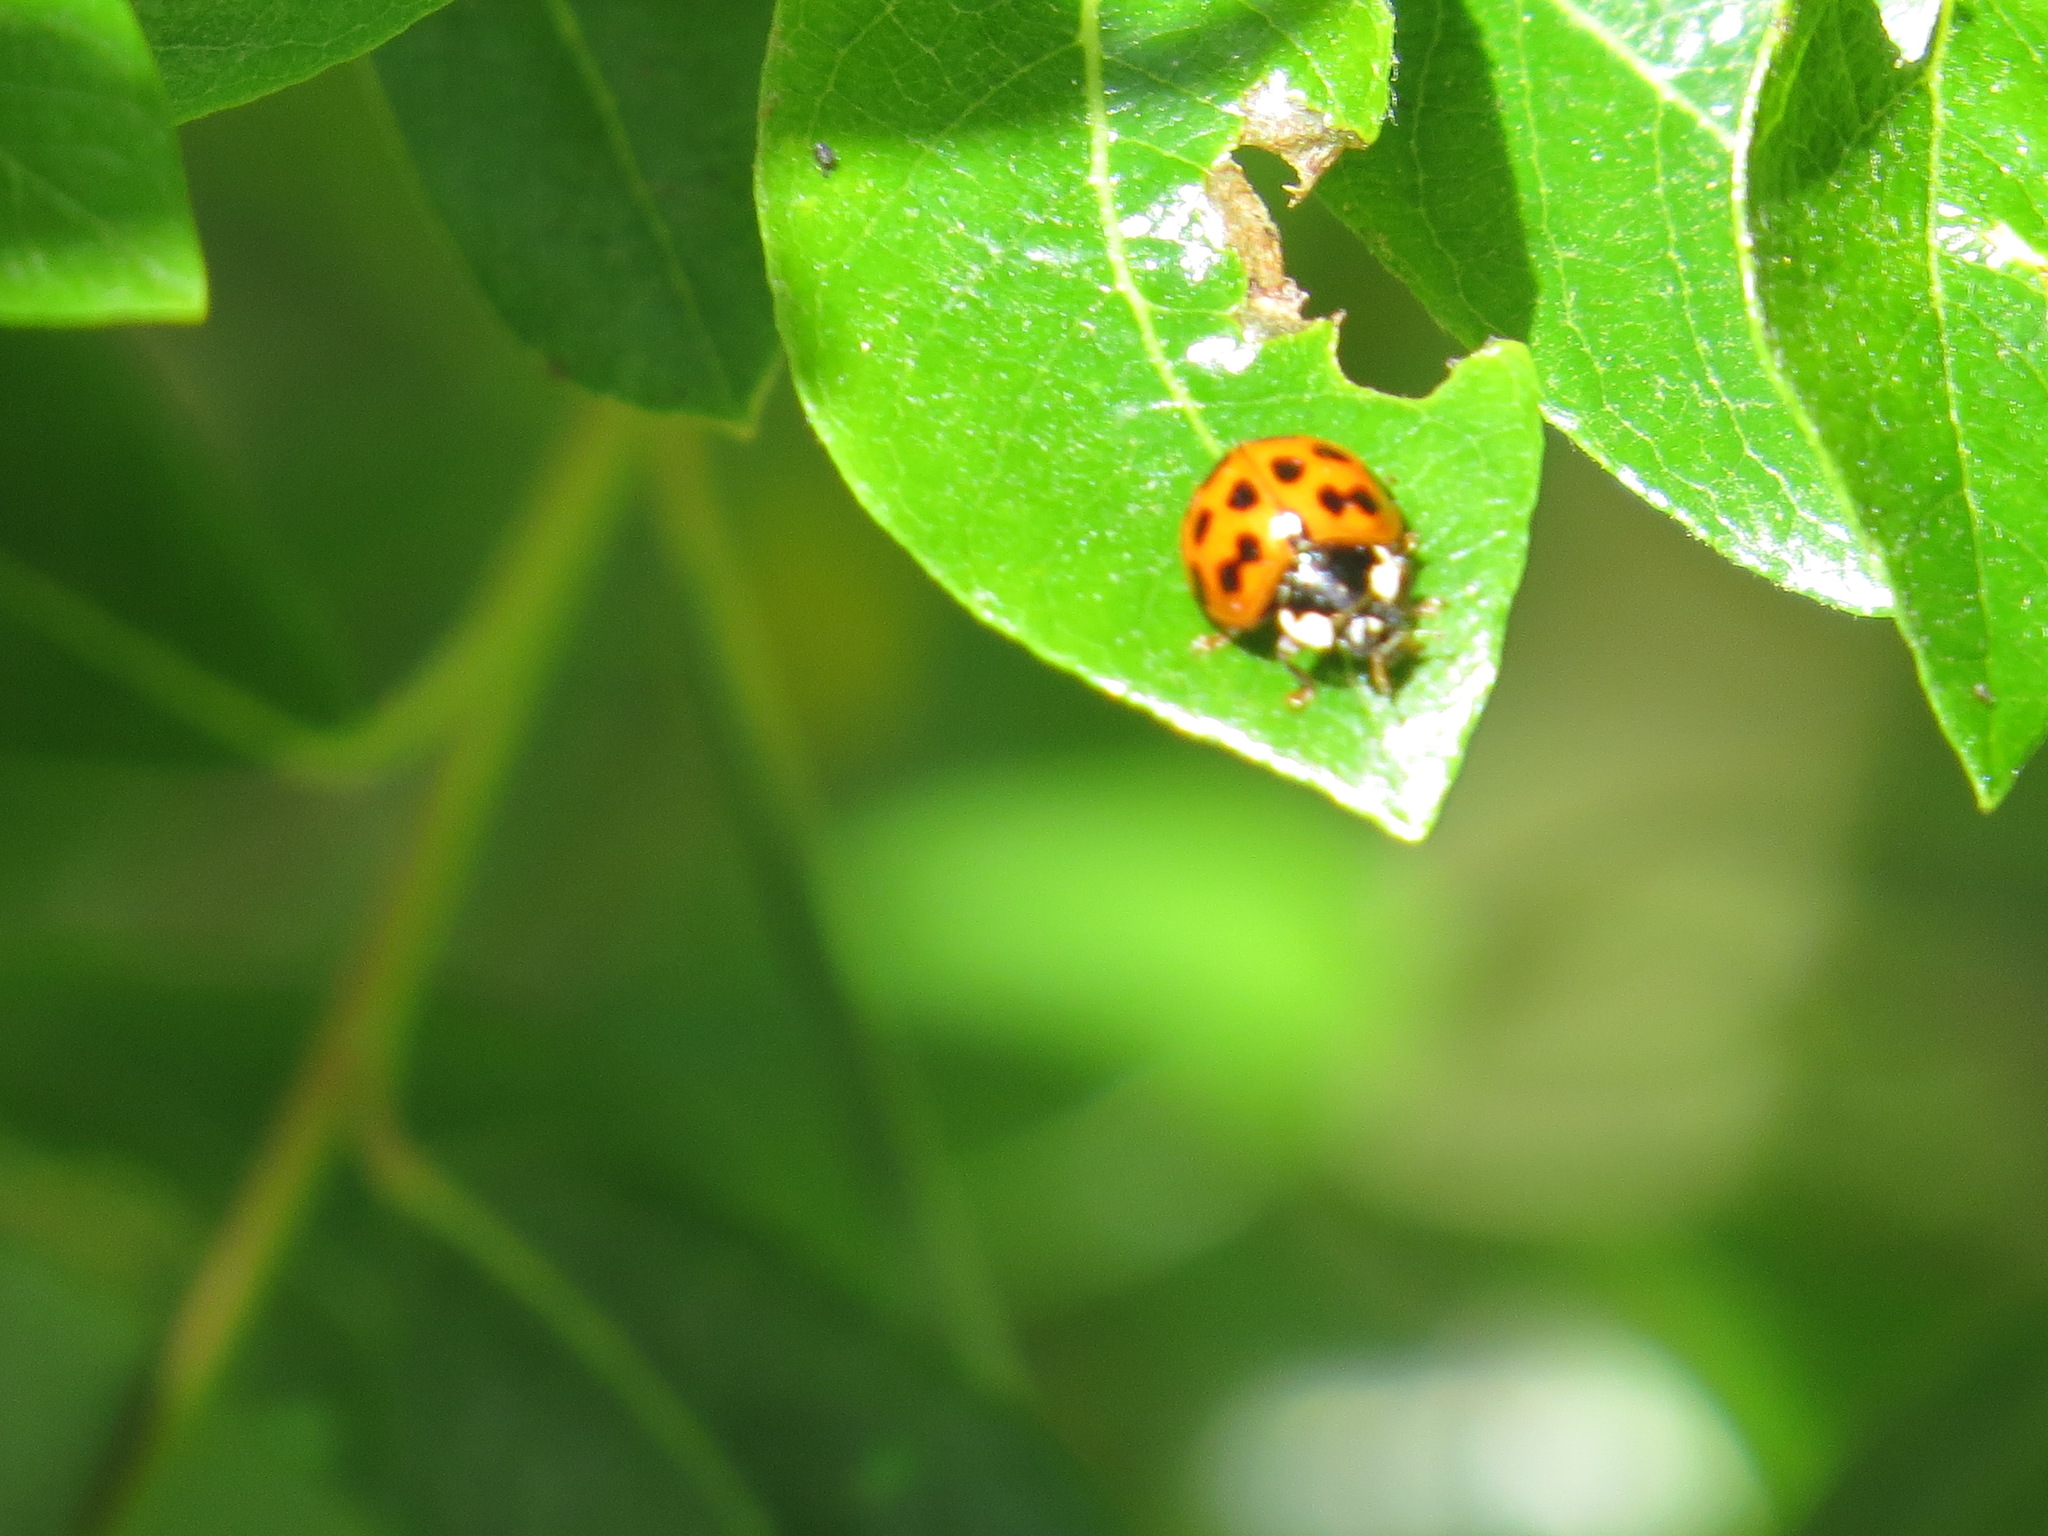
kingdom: Animalia
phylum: Arthropoda
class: Insecta
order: Coleoptera
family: Coccinellidae
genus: Harmonia
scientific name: Harmonia axyridis
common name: Harlequin ladybird
